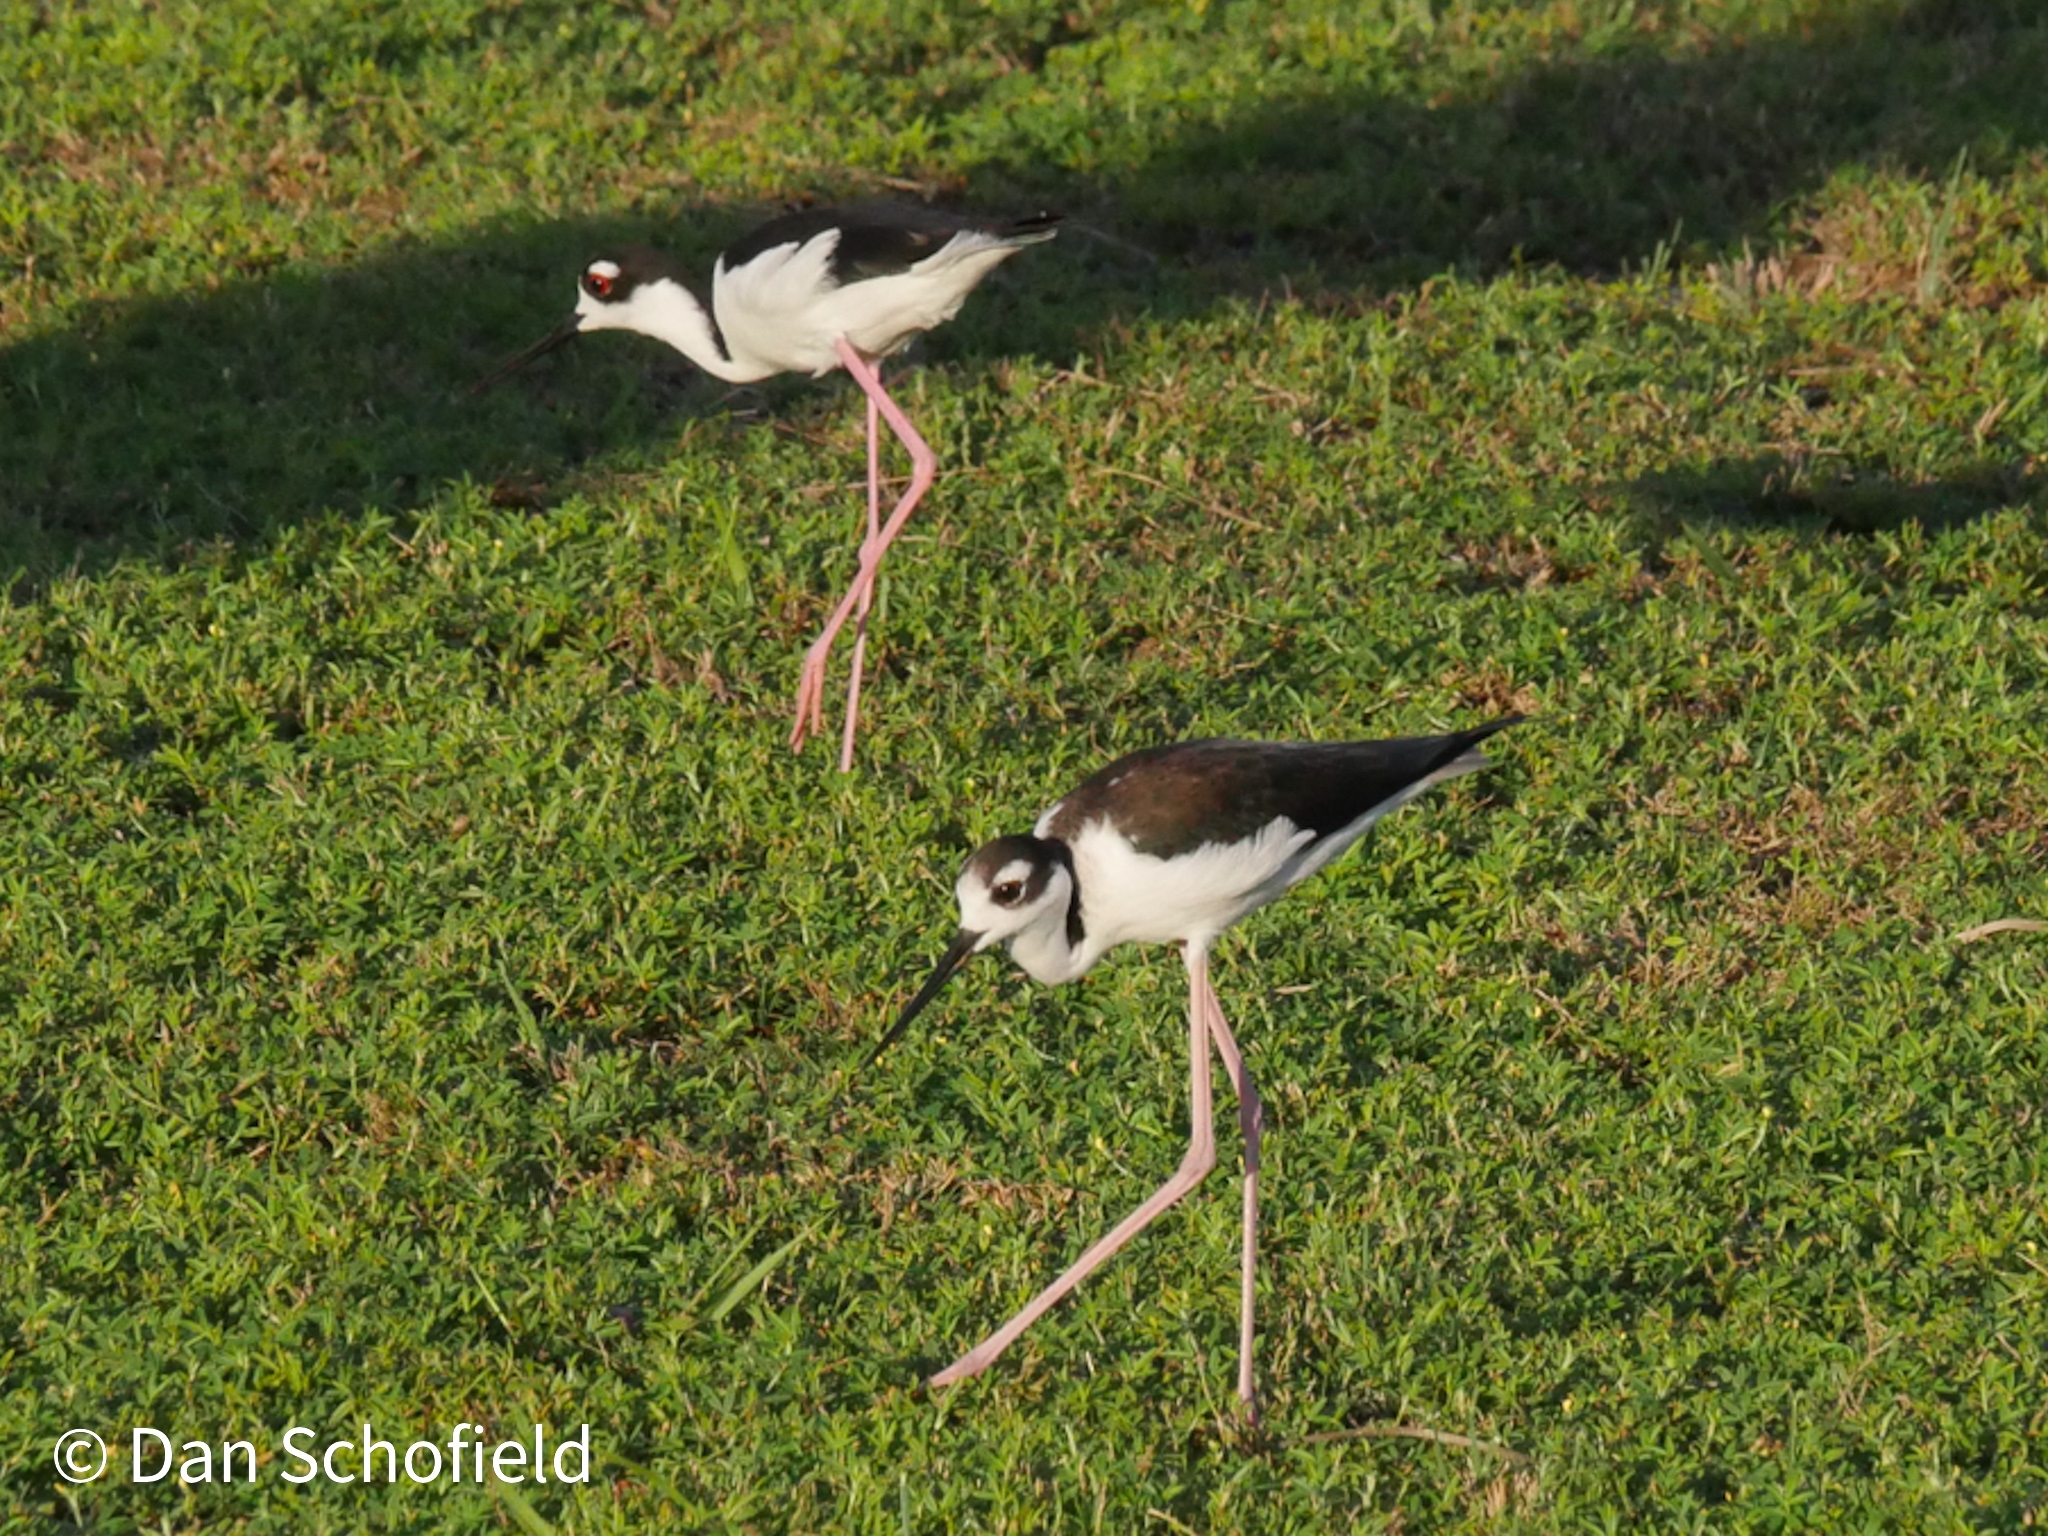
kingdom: Animalia
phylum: Chordata
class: Aves
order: Charadriiformes
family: Recurvirostridae
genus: Himantopus
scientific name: Himantopus mexicanus
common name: Black-necked stilt
